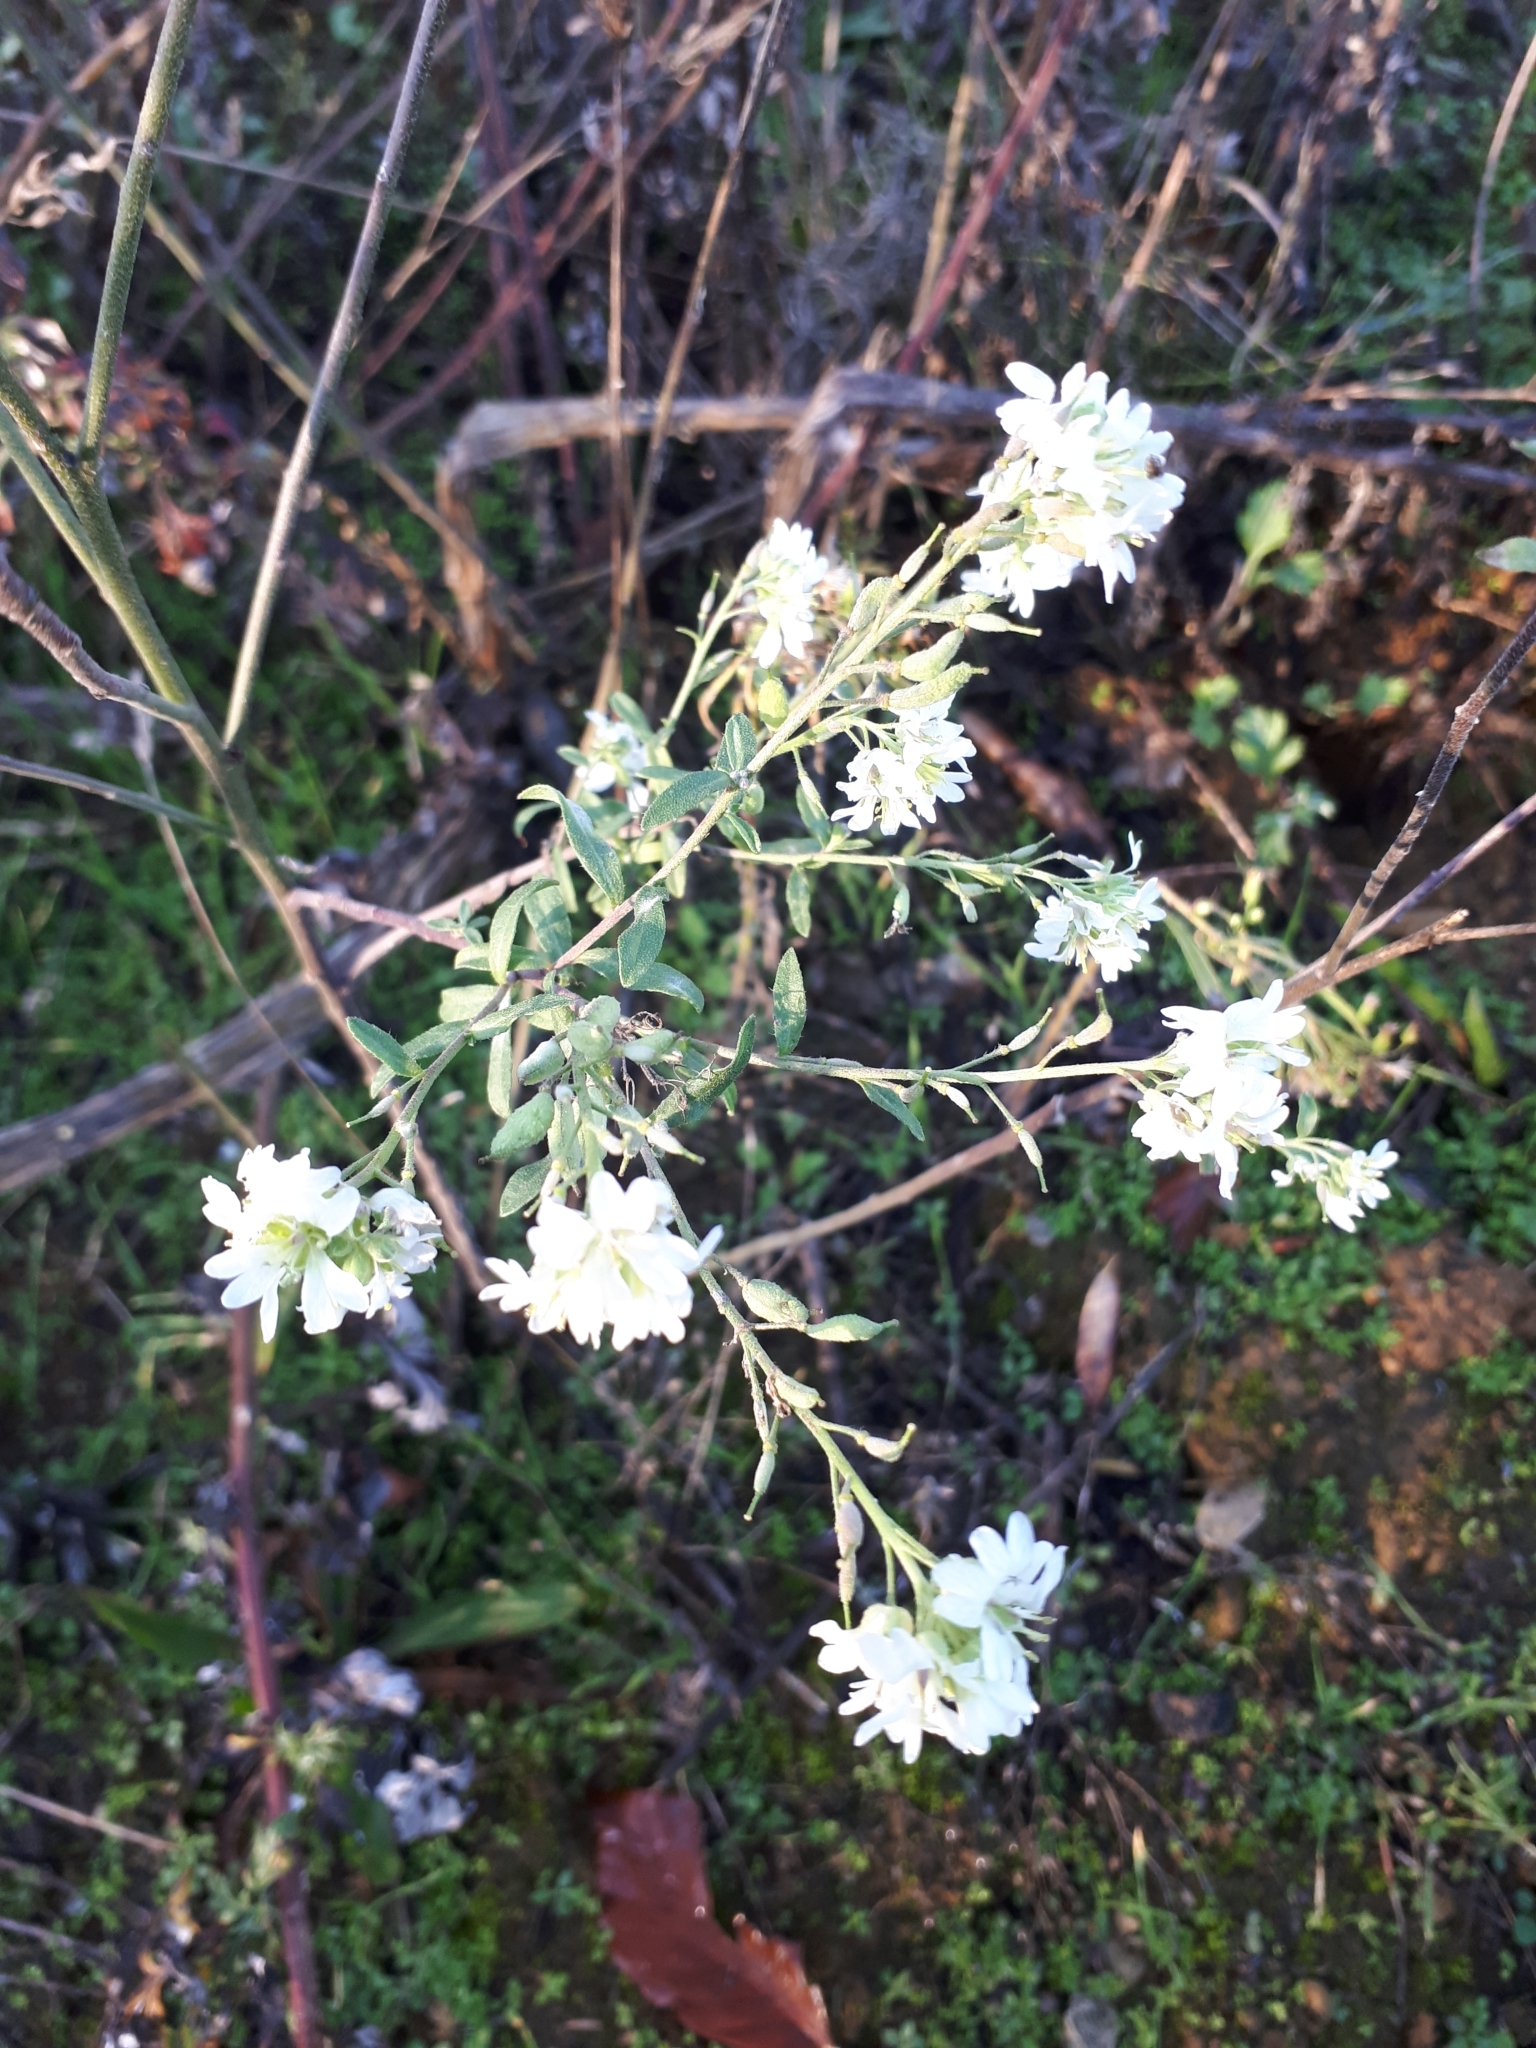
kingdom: Plantae
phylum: Tracheophyta
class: Magnoliopsida
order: Brassicales
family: Brassicaceae
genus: Berteroa
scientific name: Berteroa incana
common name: Hoary alison
